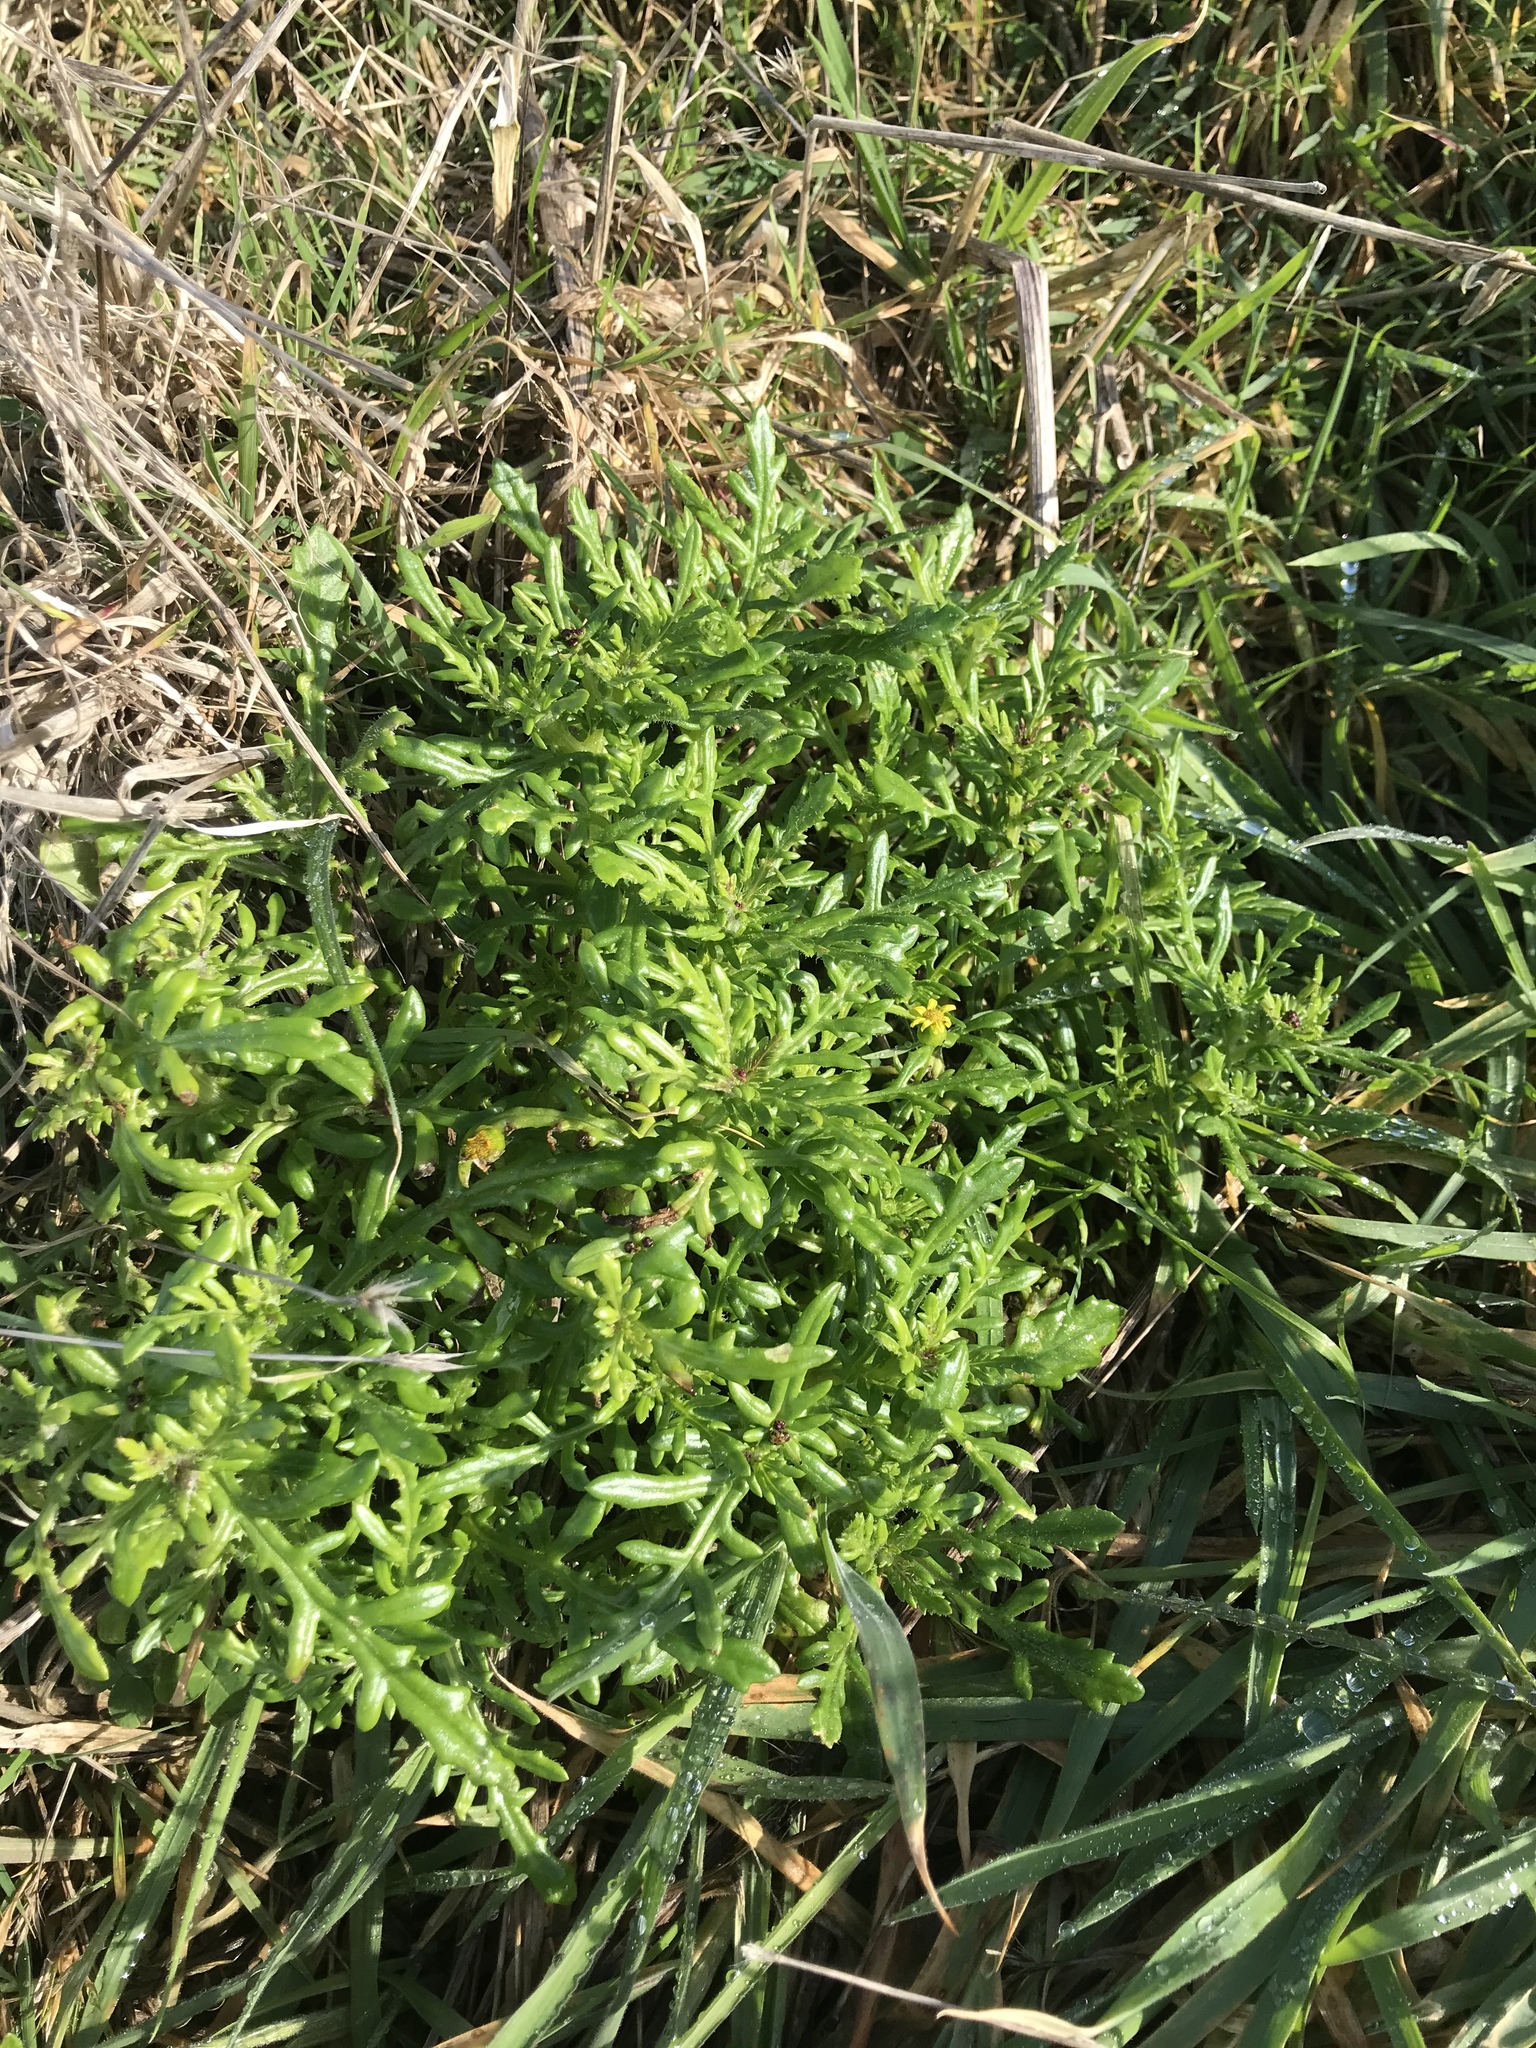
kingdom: Plantae
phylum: Tracheophyta
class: Magnoliopsida
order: Asterales
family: Asteraceae
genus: Senecio
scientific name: Senecio lautus
